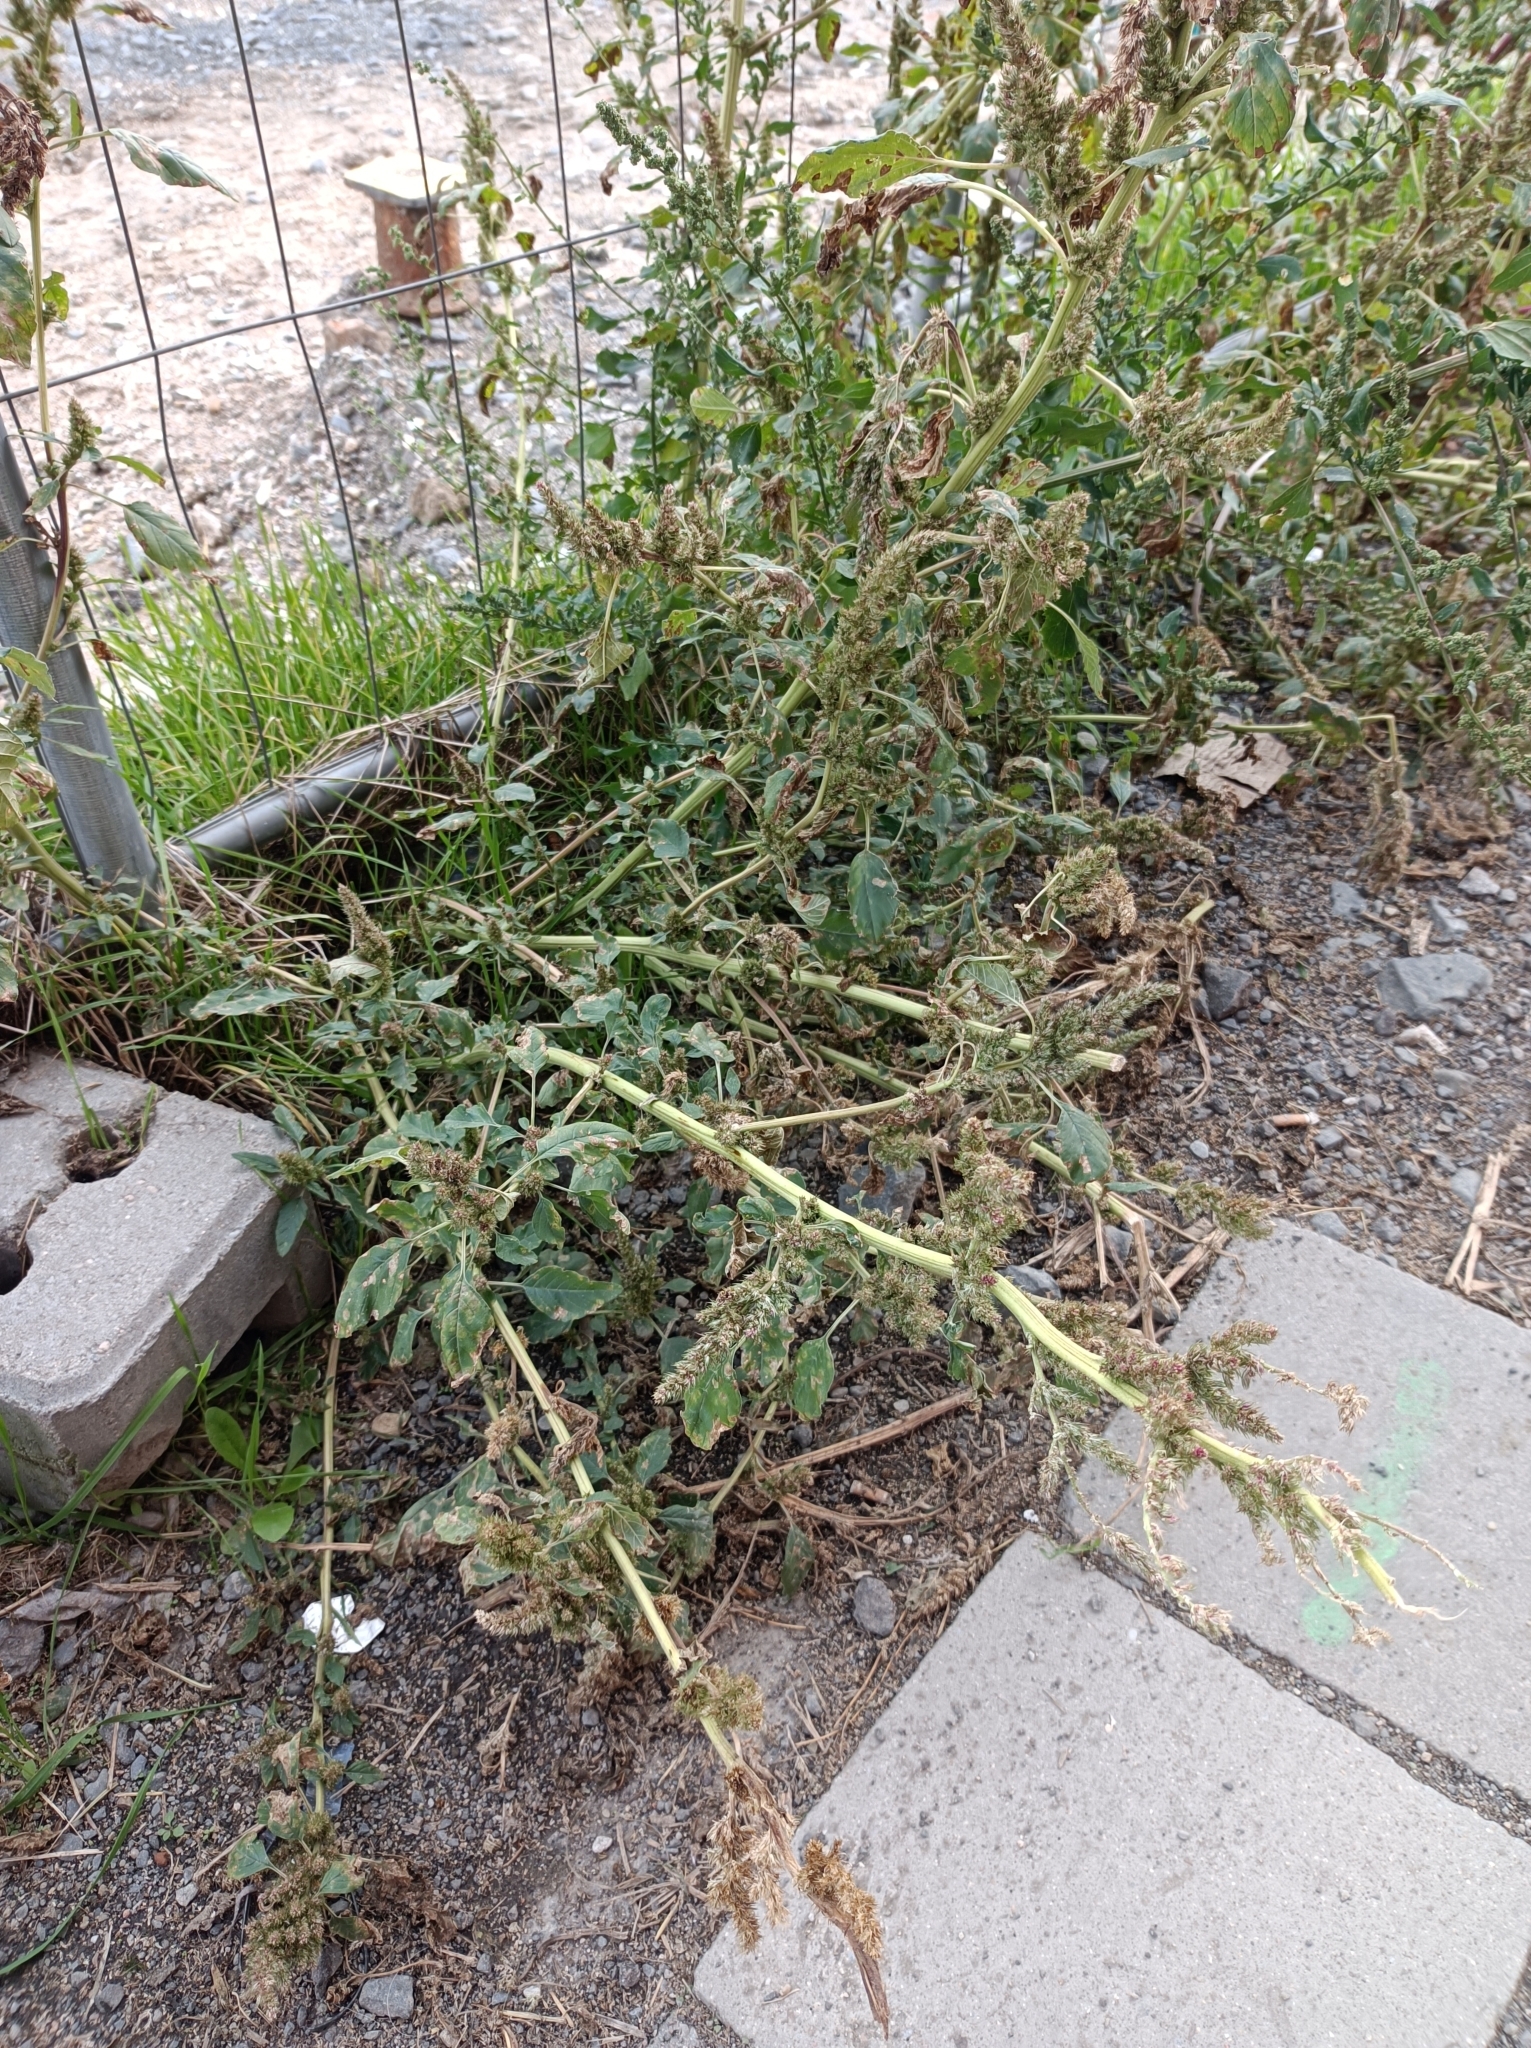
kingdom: Plantae
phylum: Tracheophyta
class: Magnoliopsida
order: Caryophyllales
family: Amaranthaceae
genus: Amaranthus
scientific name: Amaranthus retroflexus
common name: Redroot amaranth
